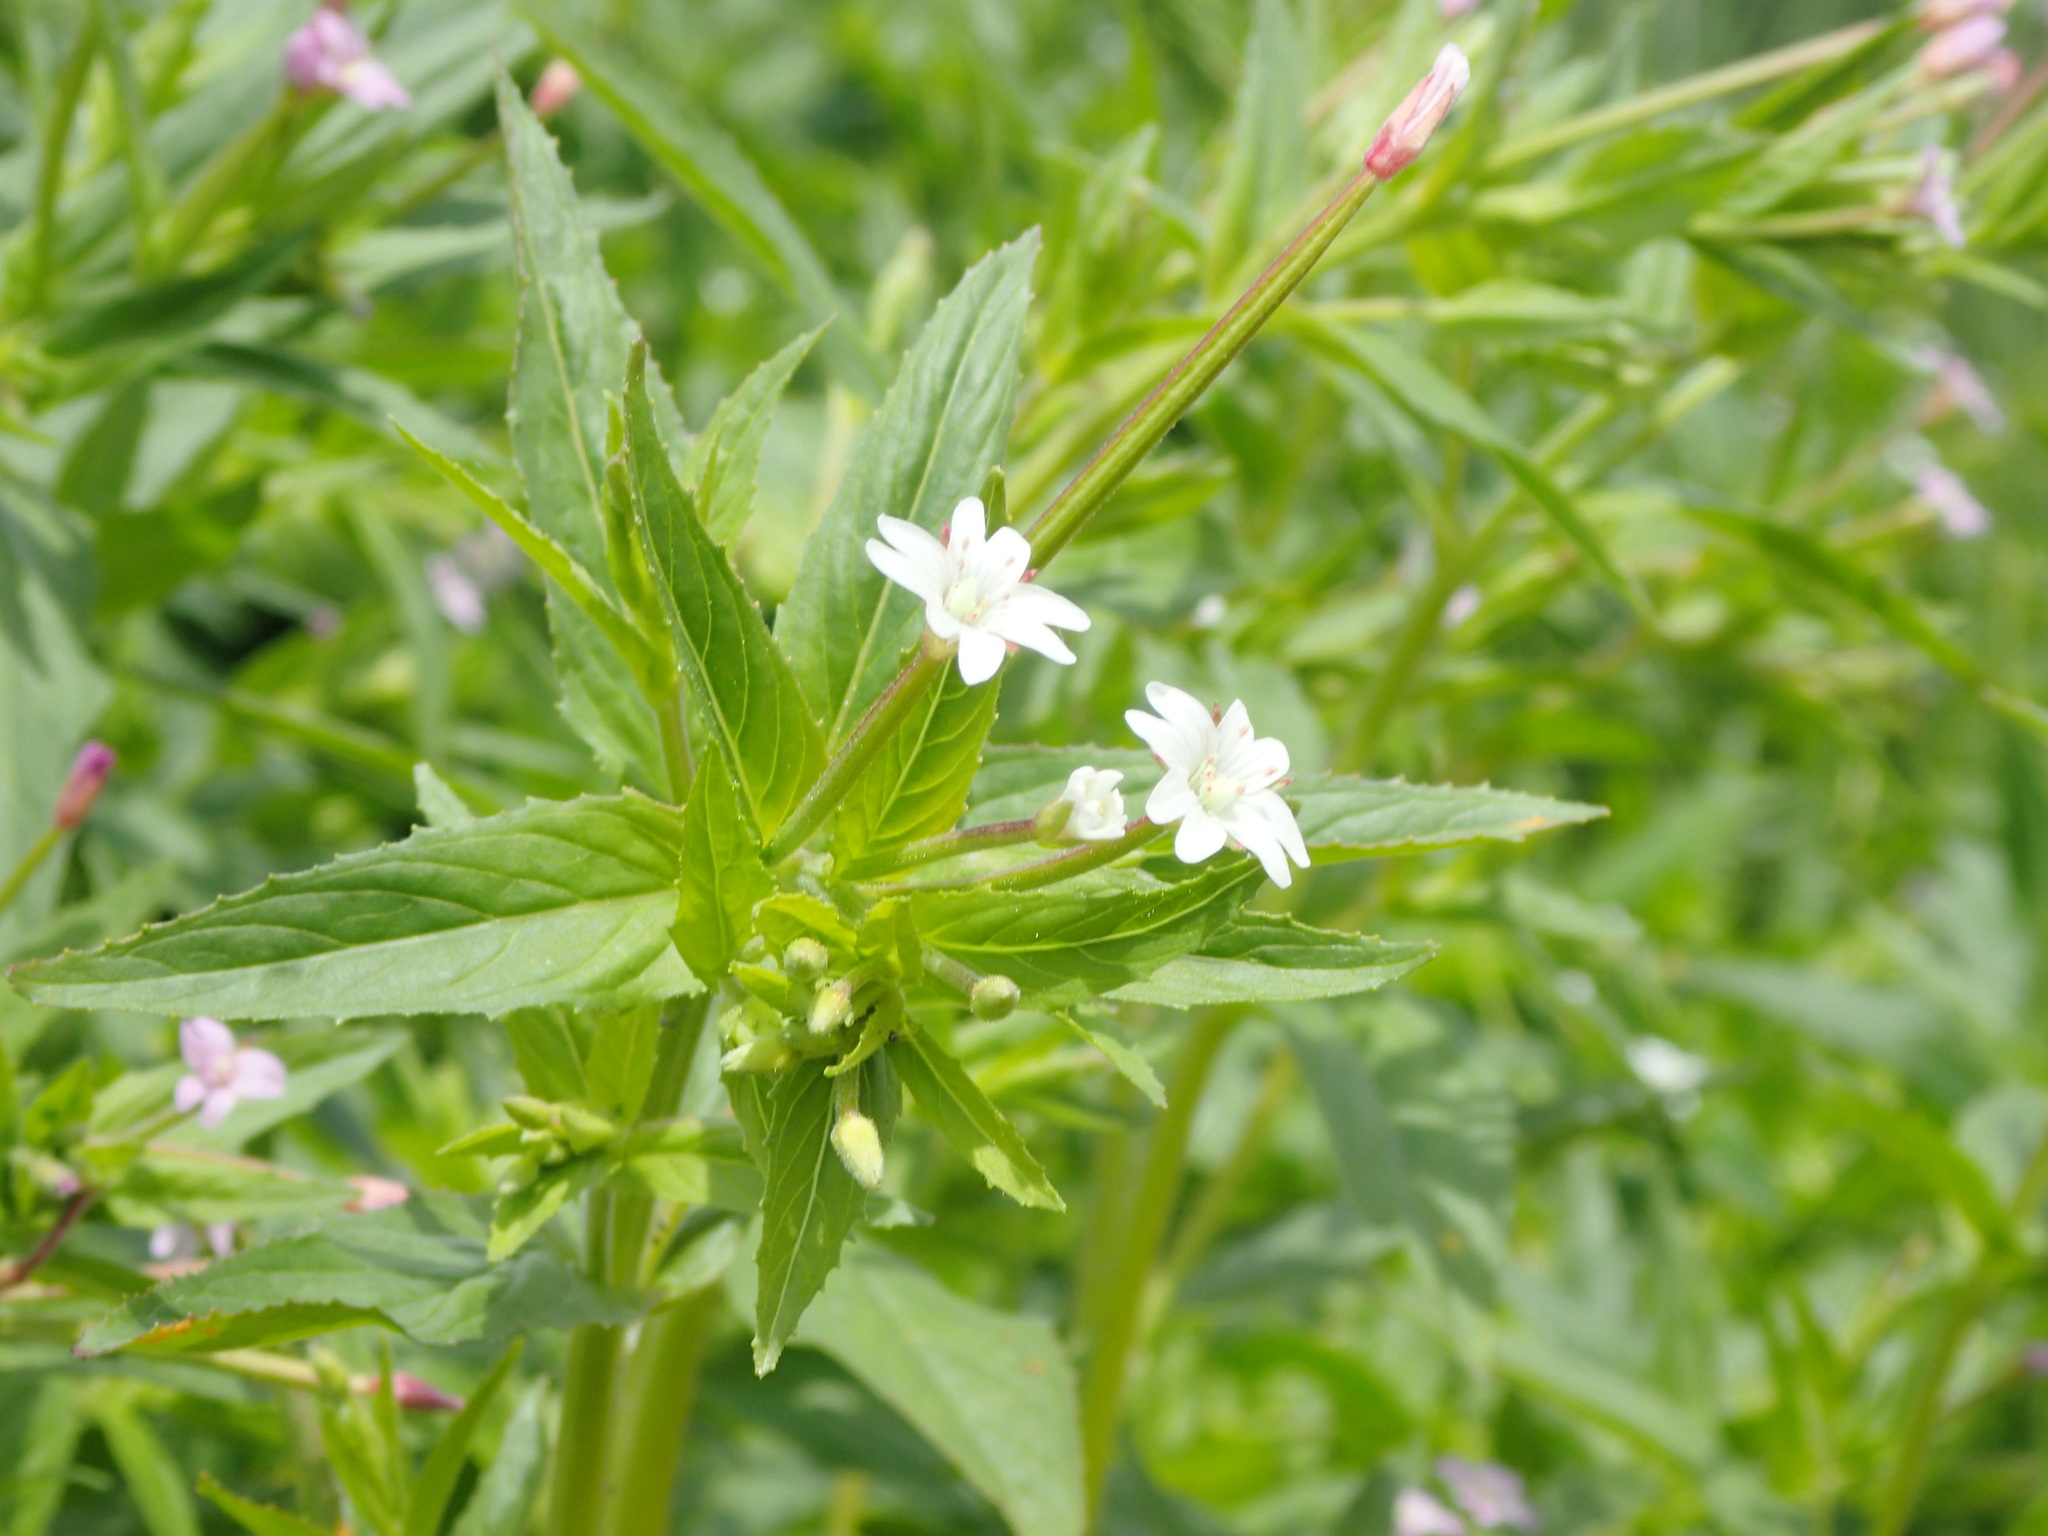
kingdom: Plantae
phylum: Tracheophyta
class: Magnoliopsida
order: Myrtales
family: Onagraceae
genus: Epilobium
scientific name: Epilobium ciliatum
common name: American willowherb
